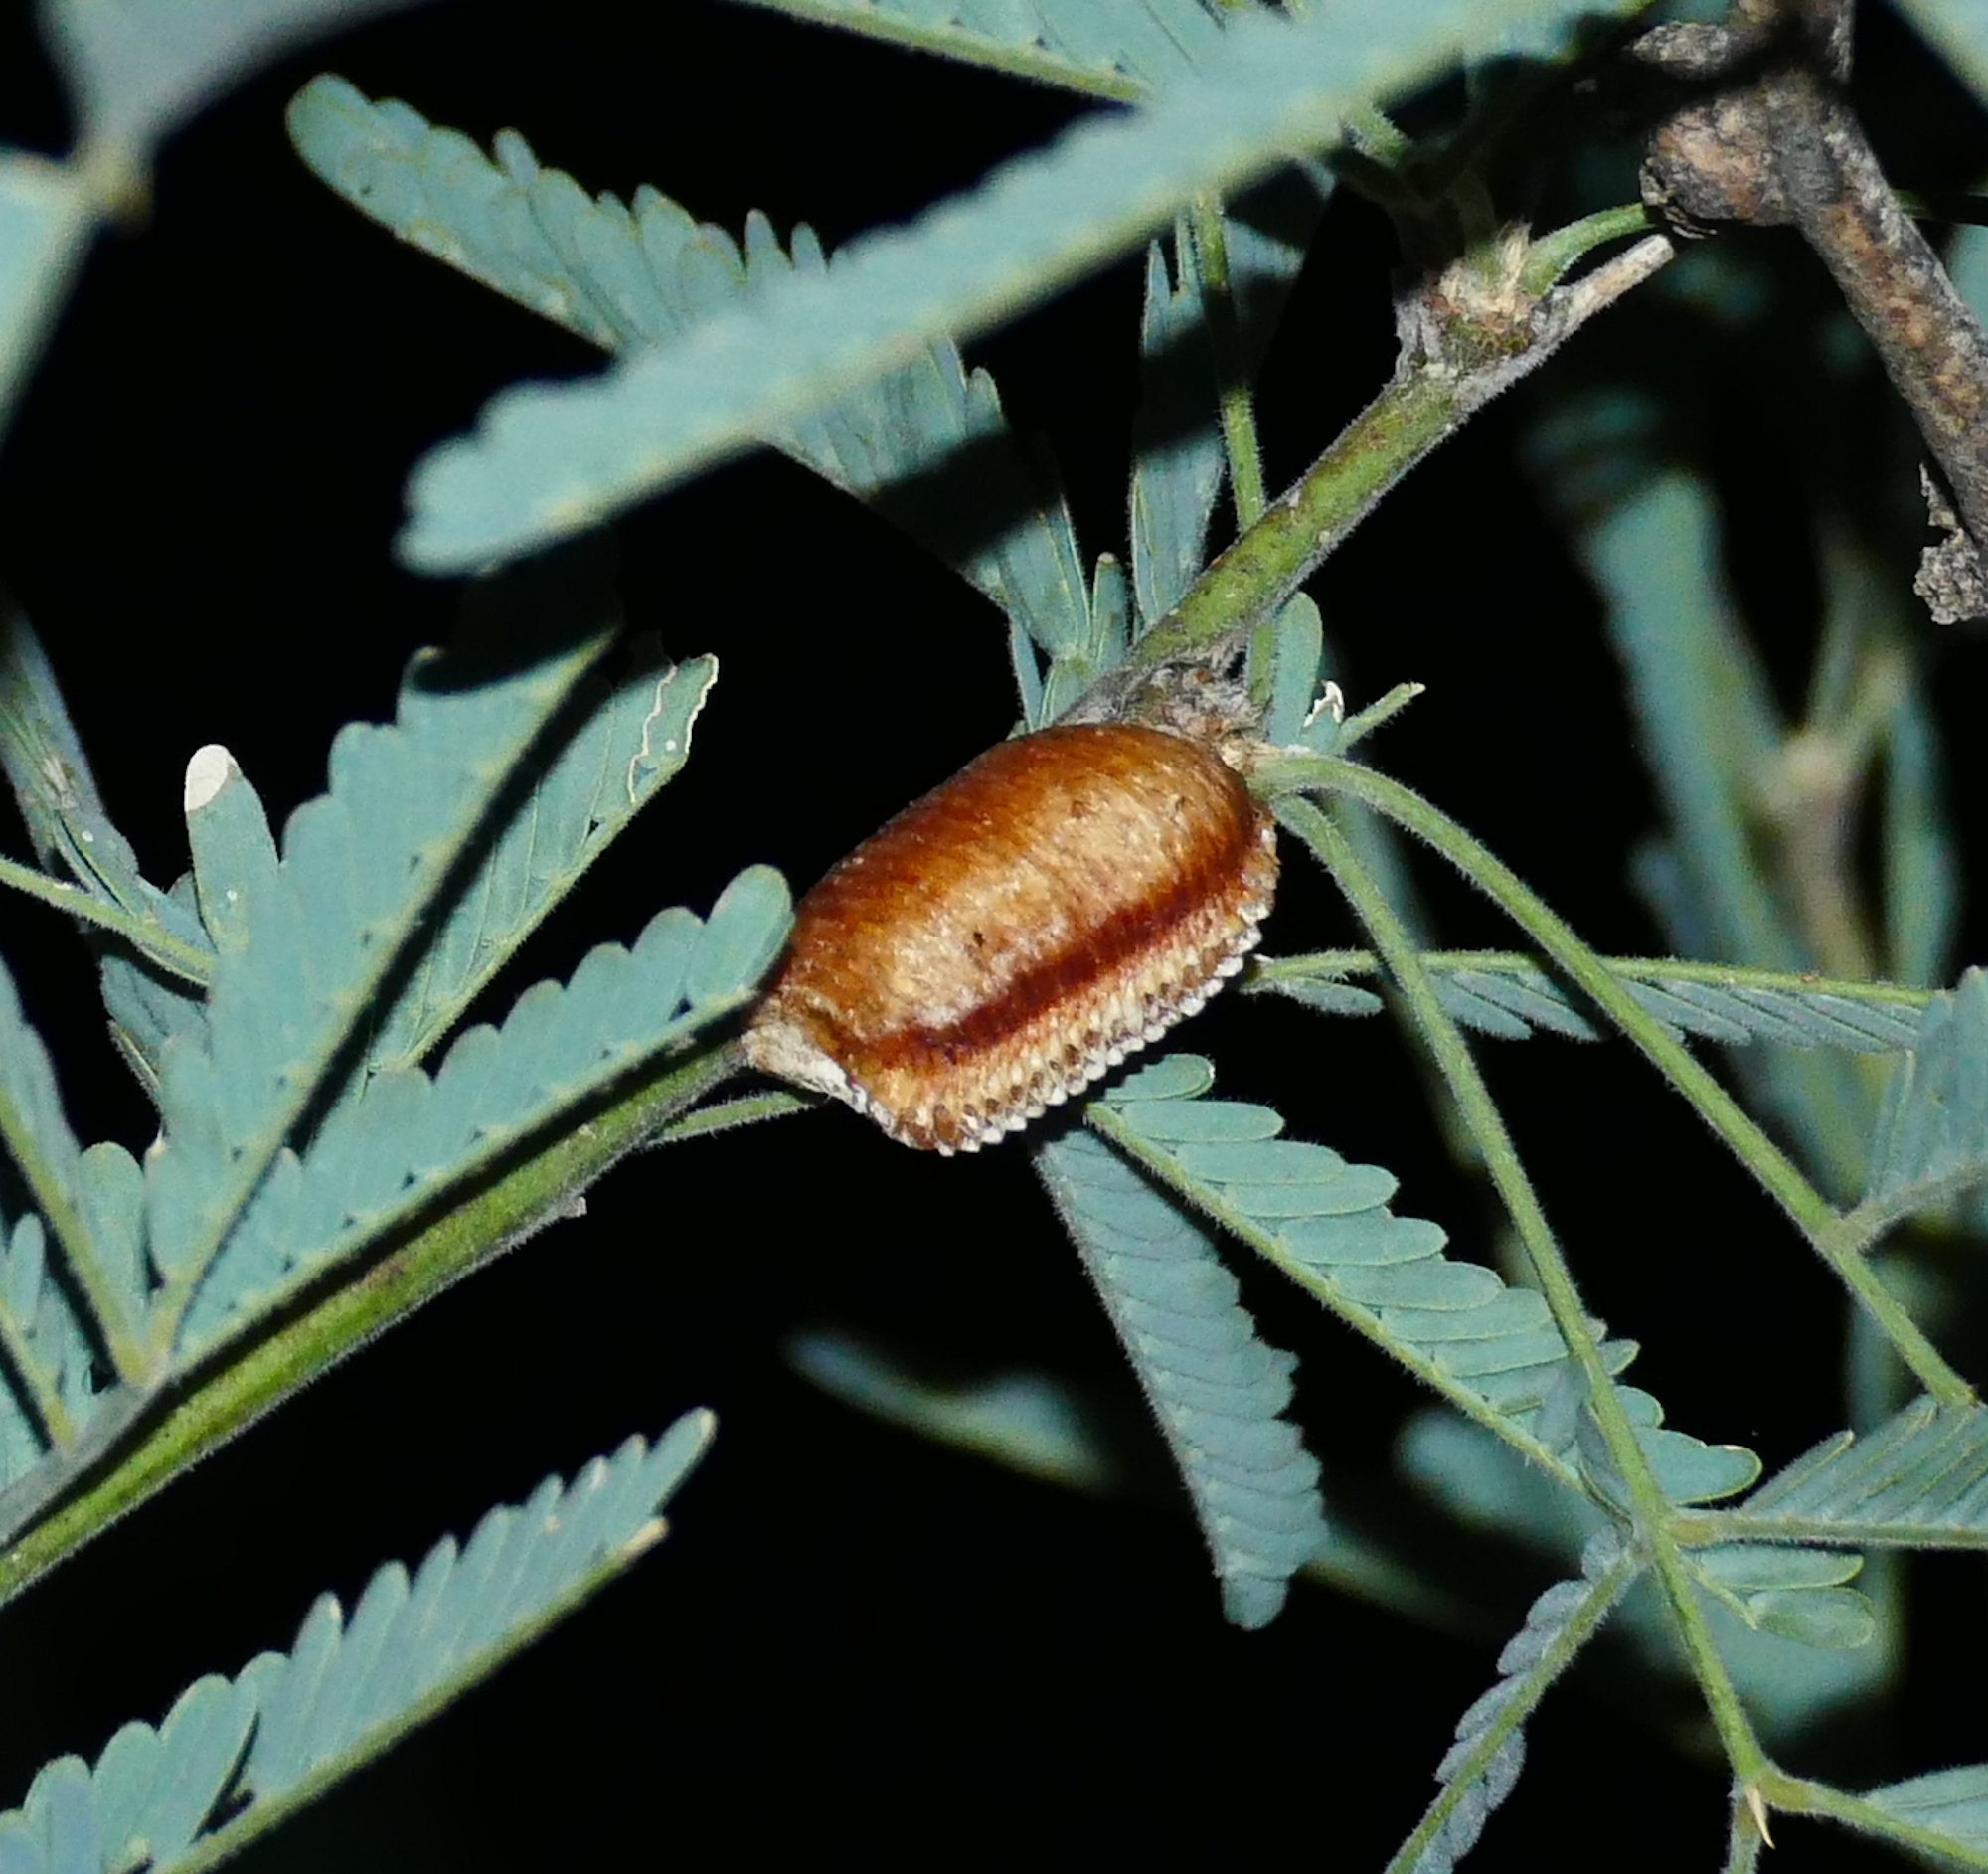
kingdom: Animalia
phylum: Arthropoda
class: Insecta
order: Mantodea
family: Mantidae
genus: Stagmomantis
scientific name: Stagmomantis limbata
